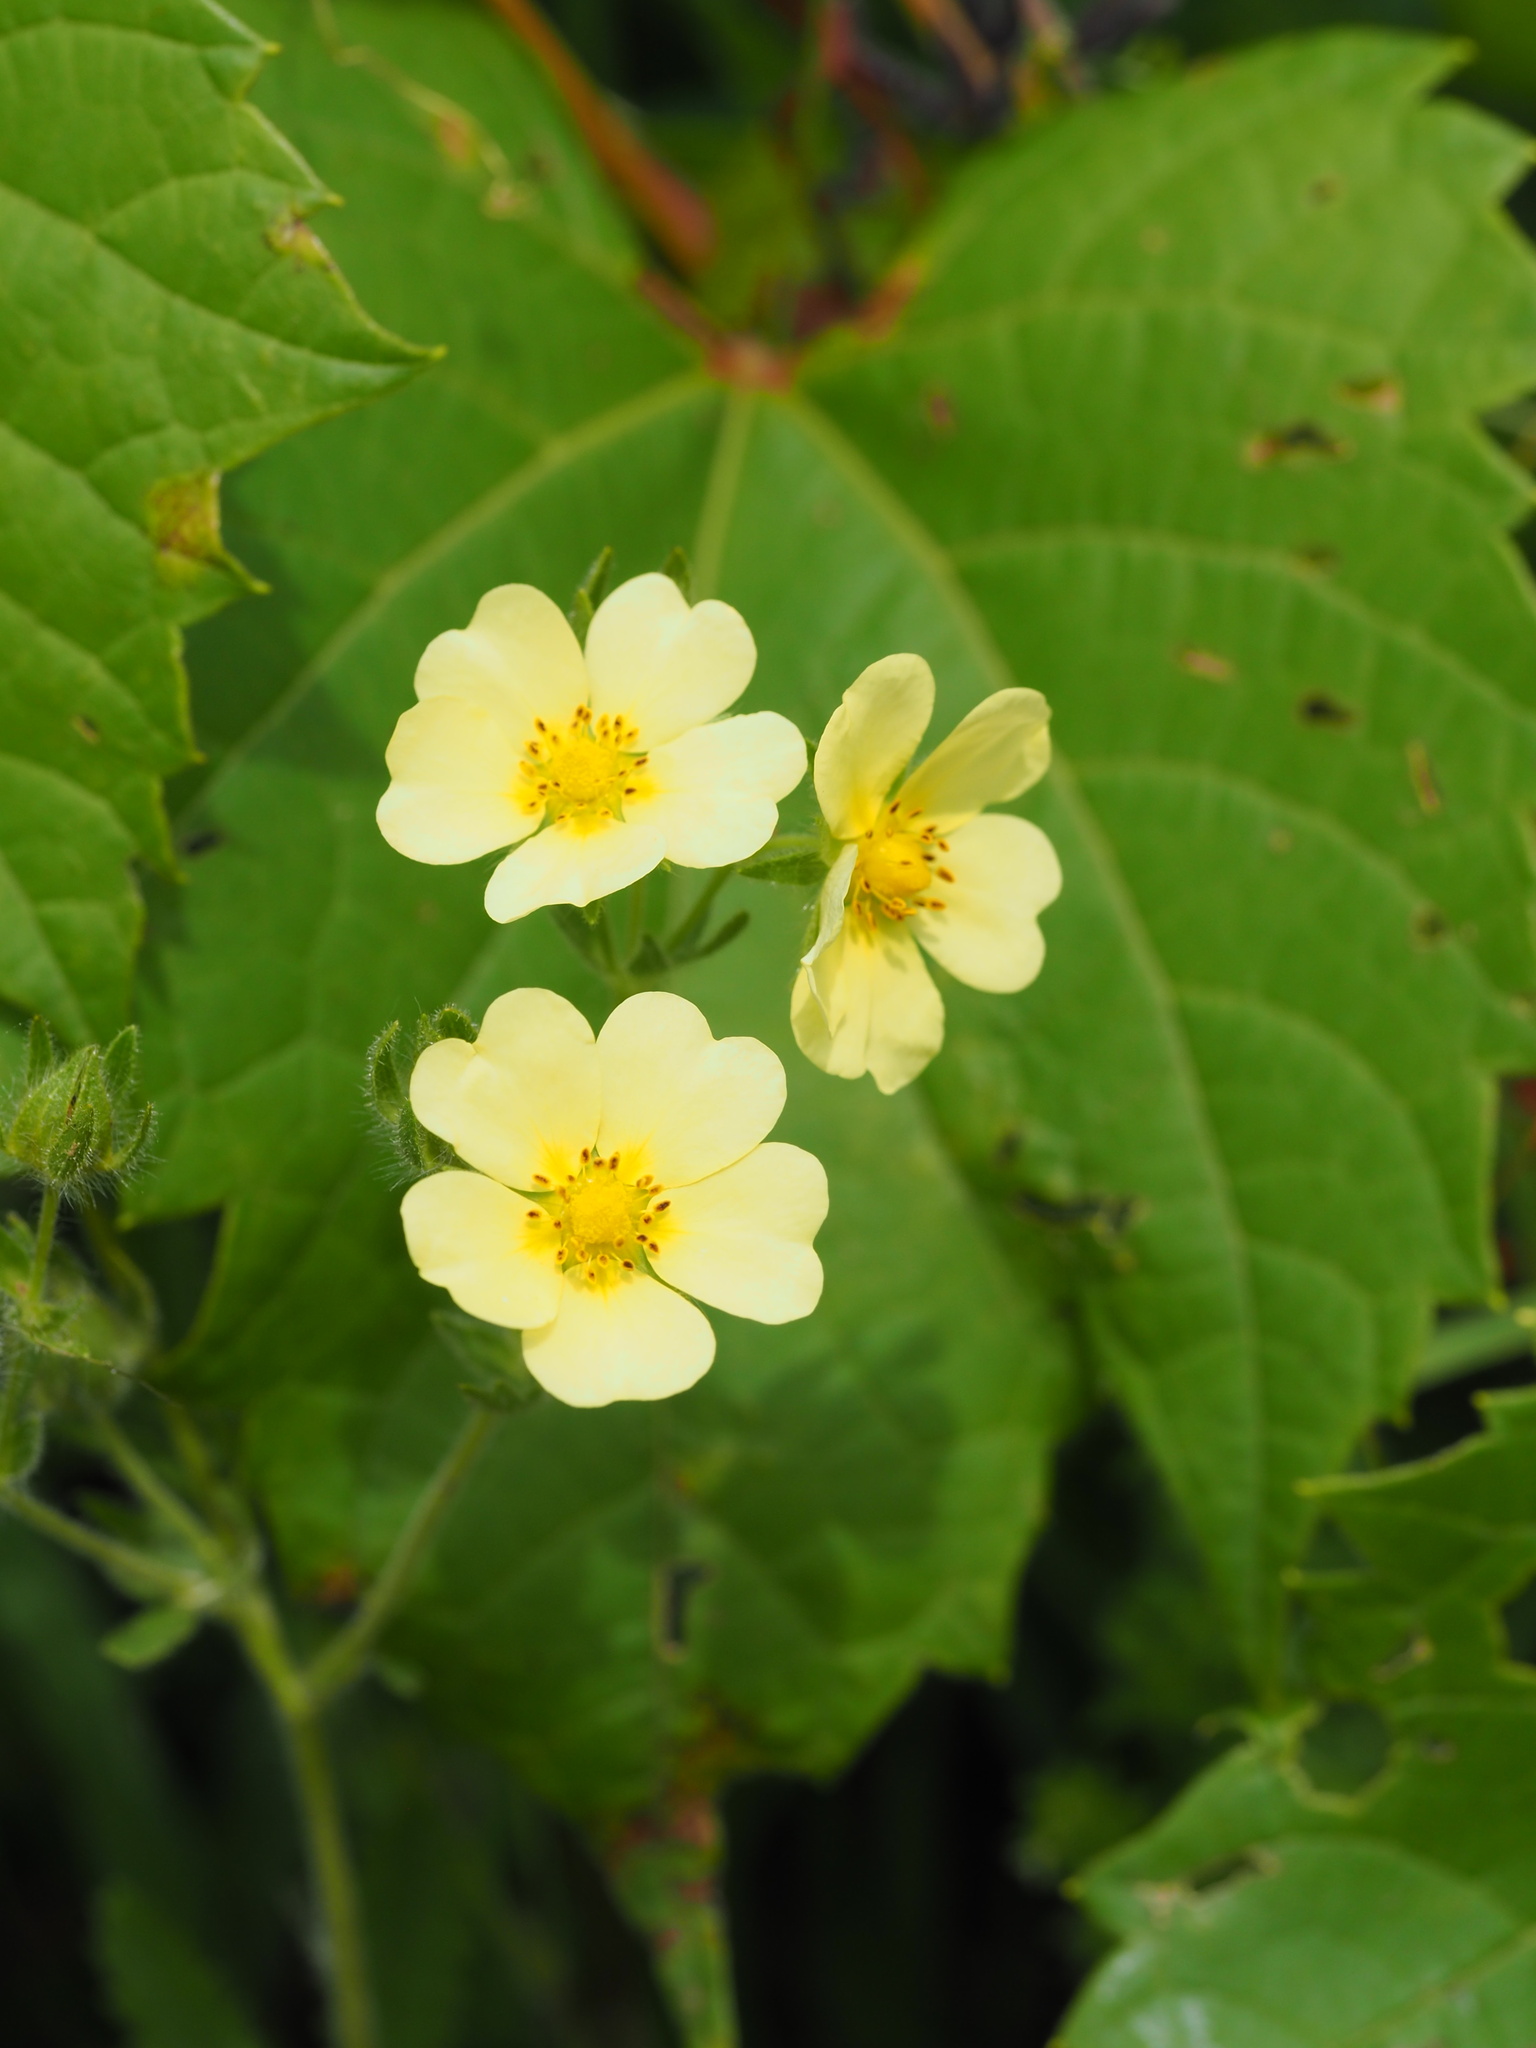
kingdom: Plantae
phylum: Tracheophyta
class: Magnoliopsida
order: Rosales
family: Rosaceae
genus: Potentilla
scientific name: Potentilla recta
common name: Sulphur cinquefoil
